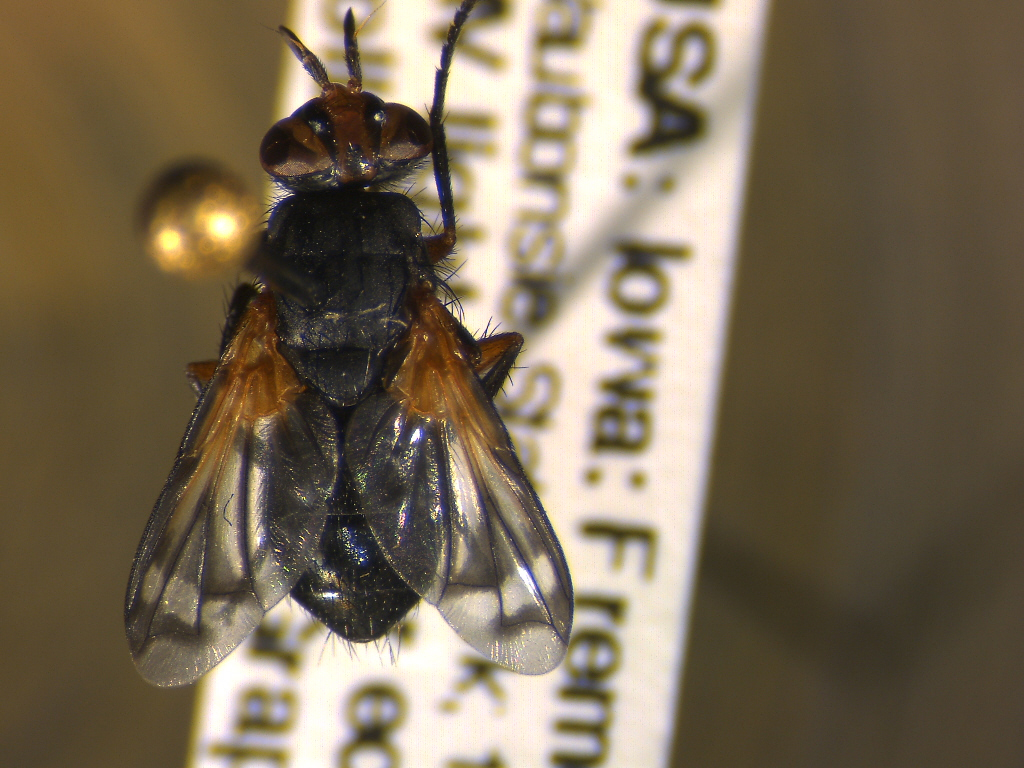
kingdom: Animalia
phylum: Arthropoda
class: Insecta
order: Diptera
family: Tachinidae
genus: Euthera
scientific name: Euthera tentatrix
